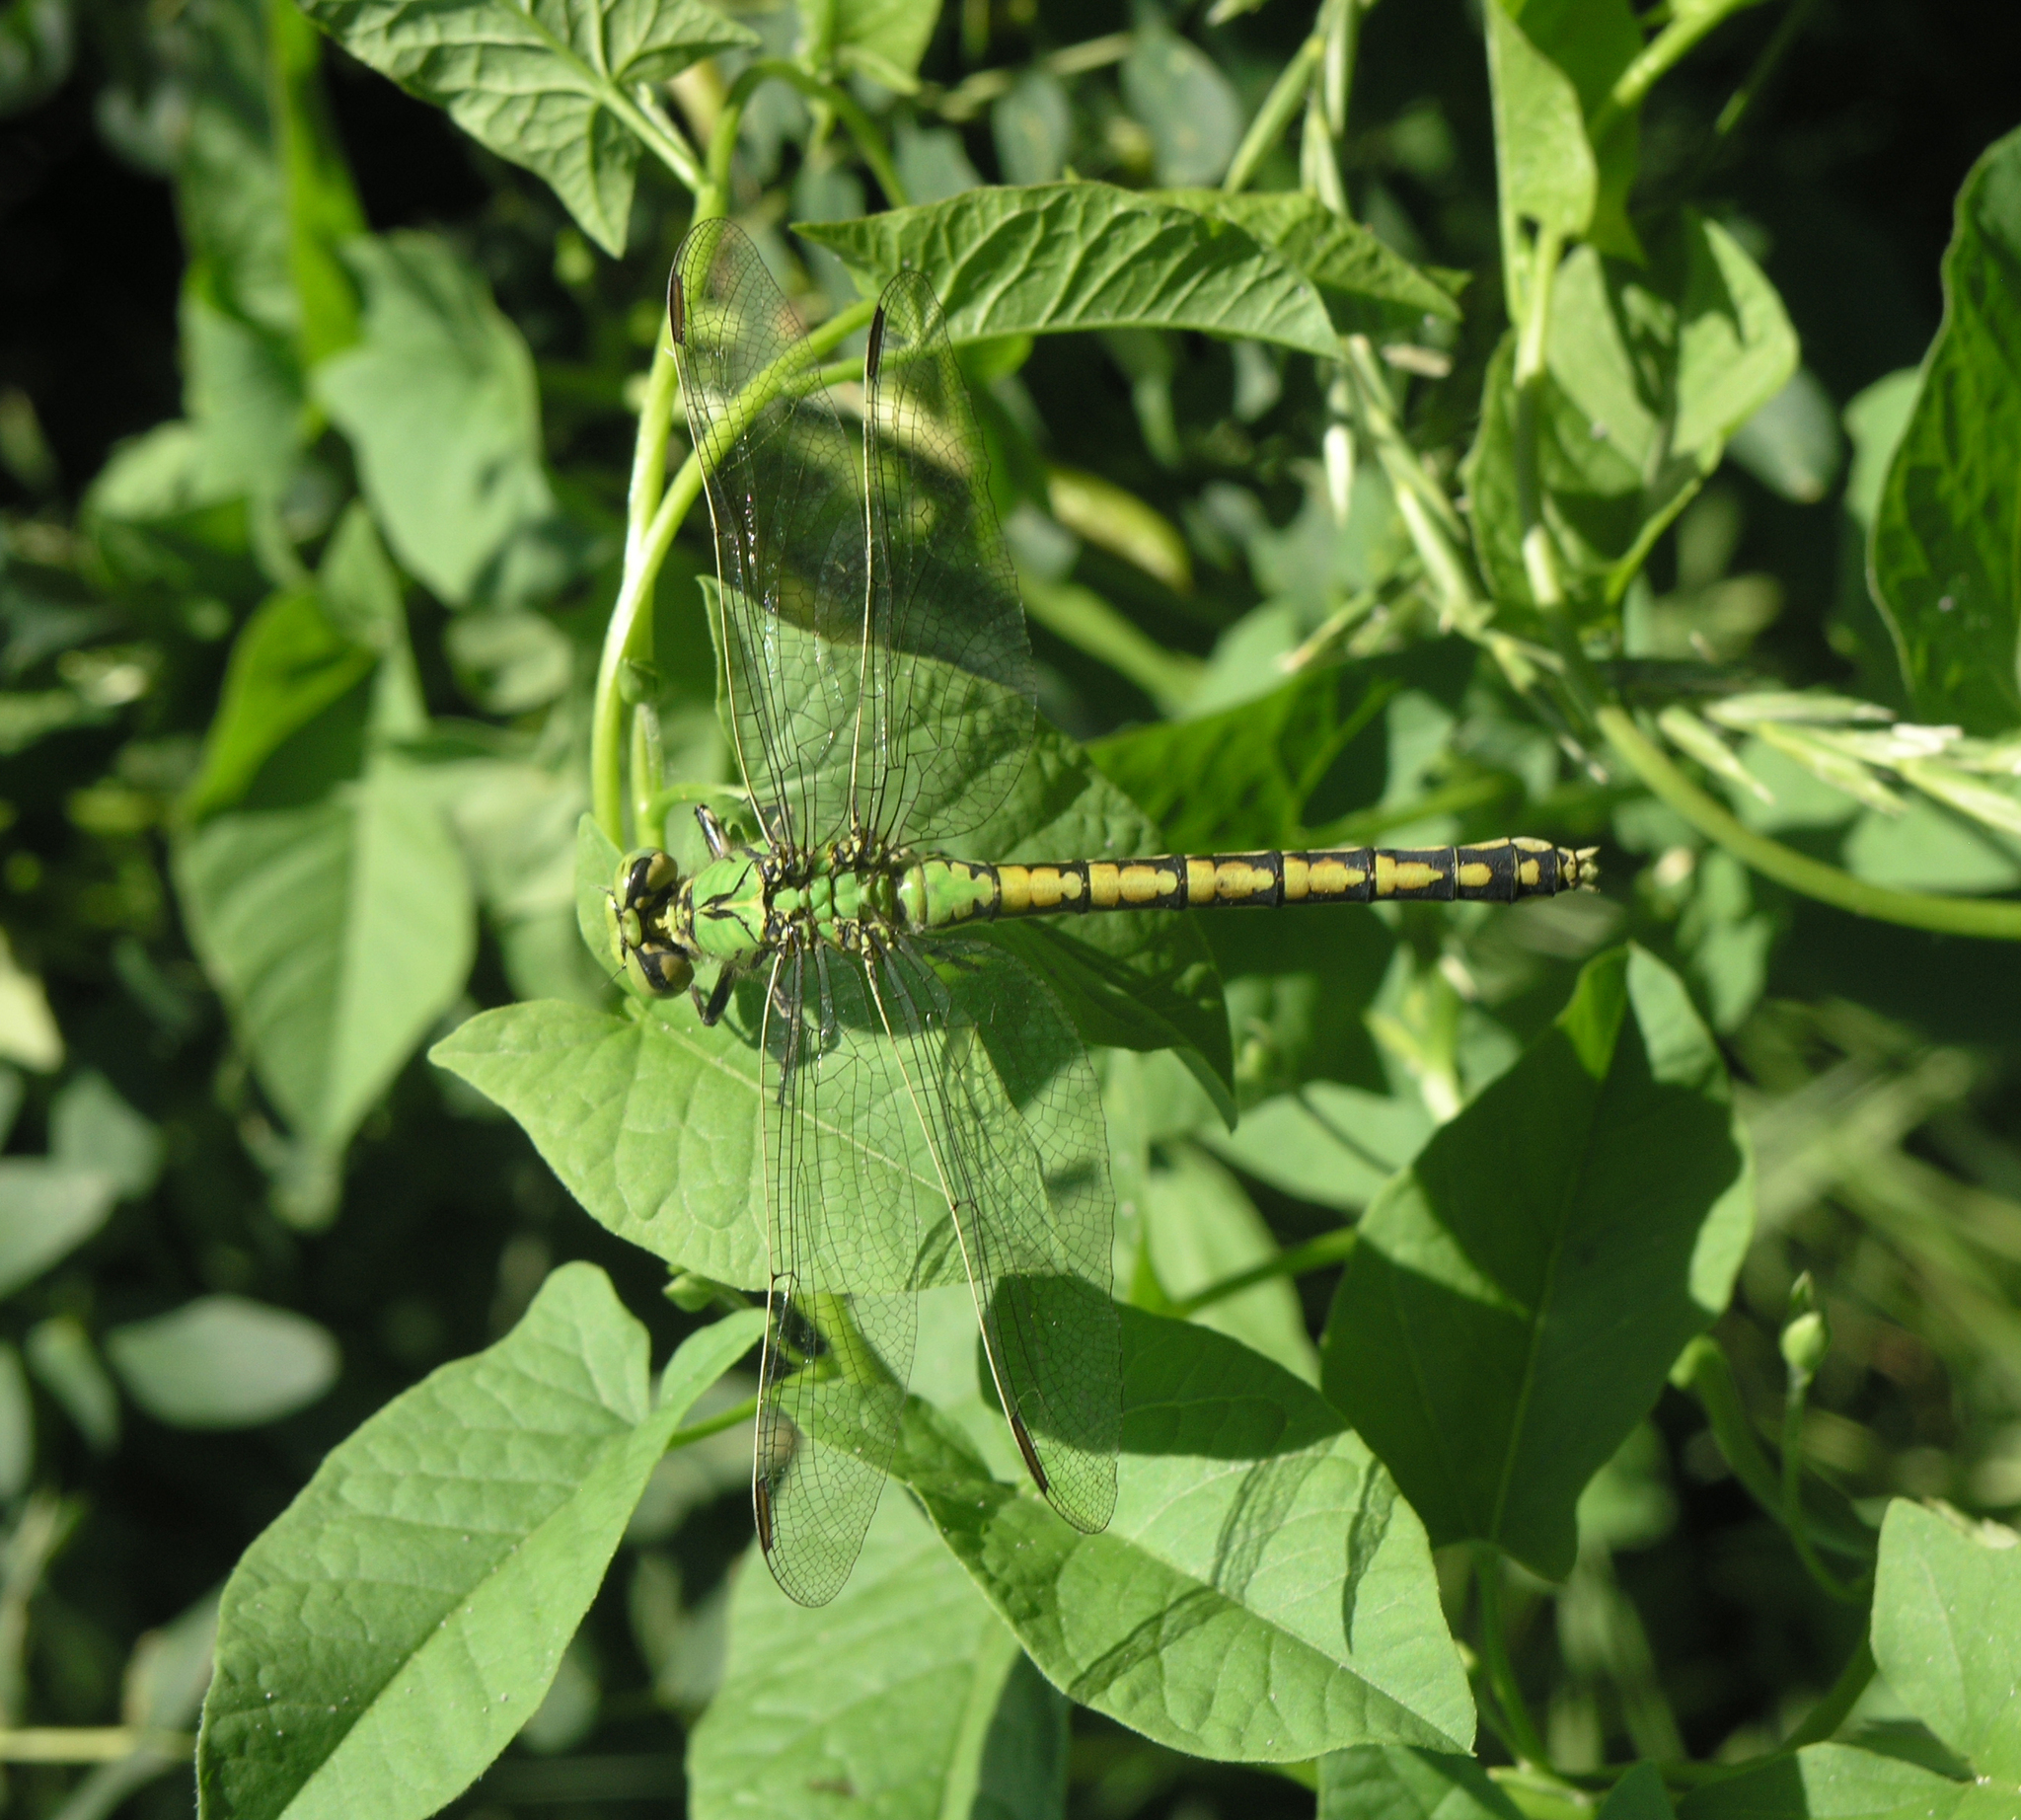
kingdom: Plantae
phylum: Tracheophyta
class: Magnoliopsida
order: Solanales
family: Convolvulaceae
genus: Convolvulus
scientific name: Convolvulus arvensis
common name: Field bindweed
